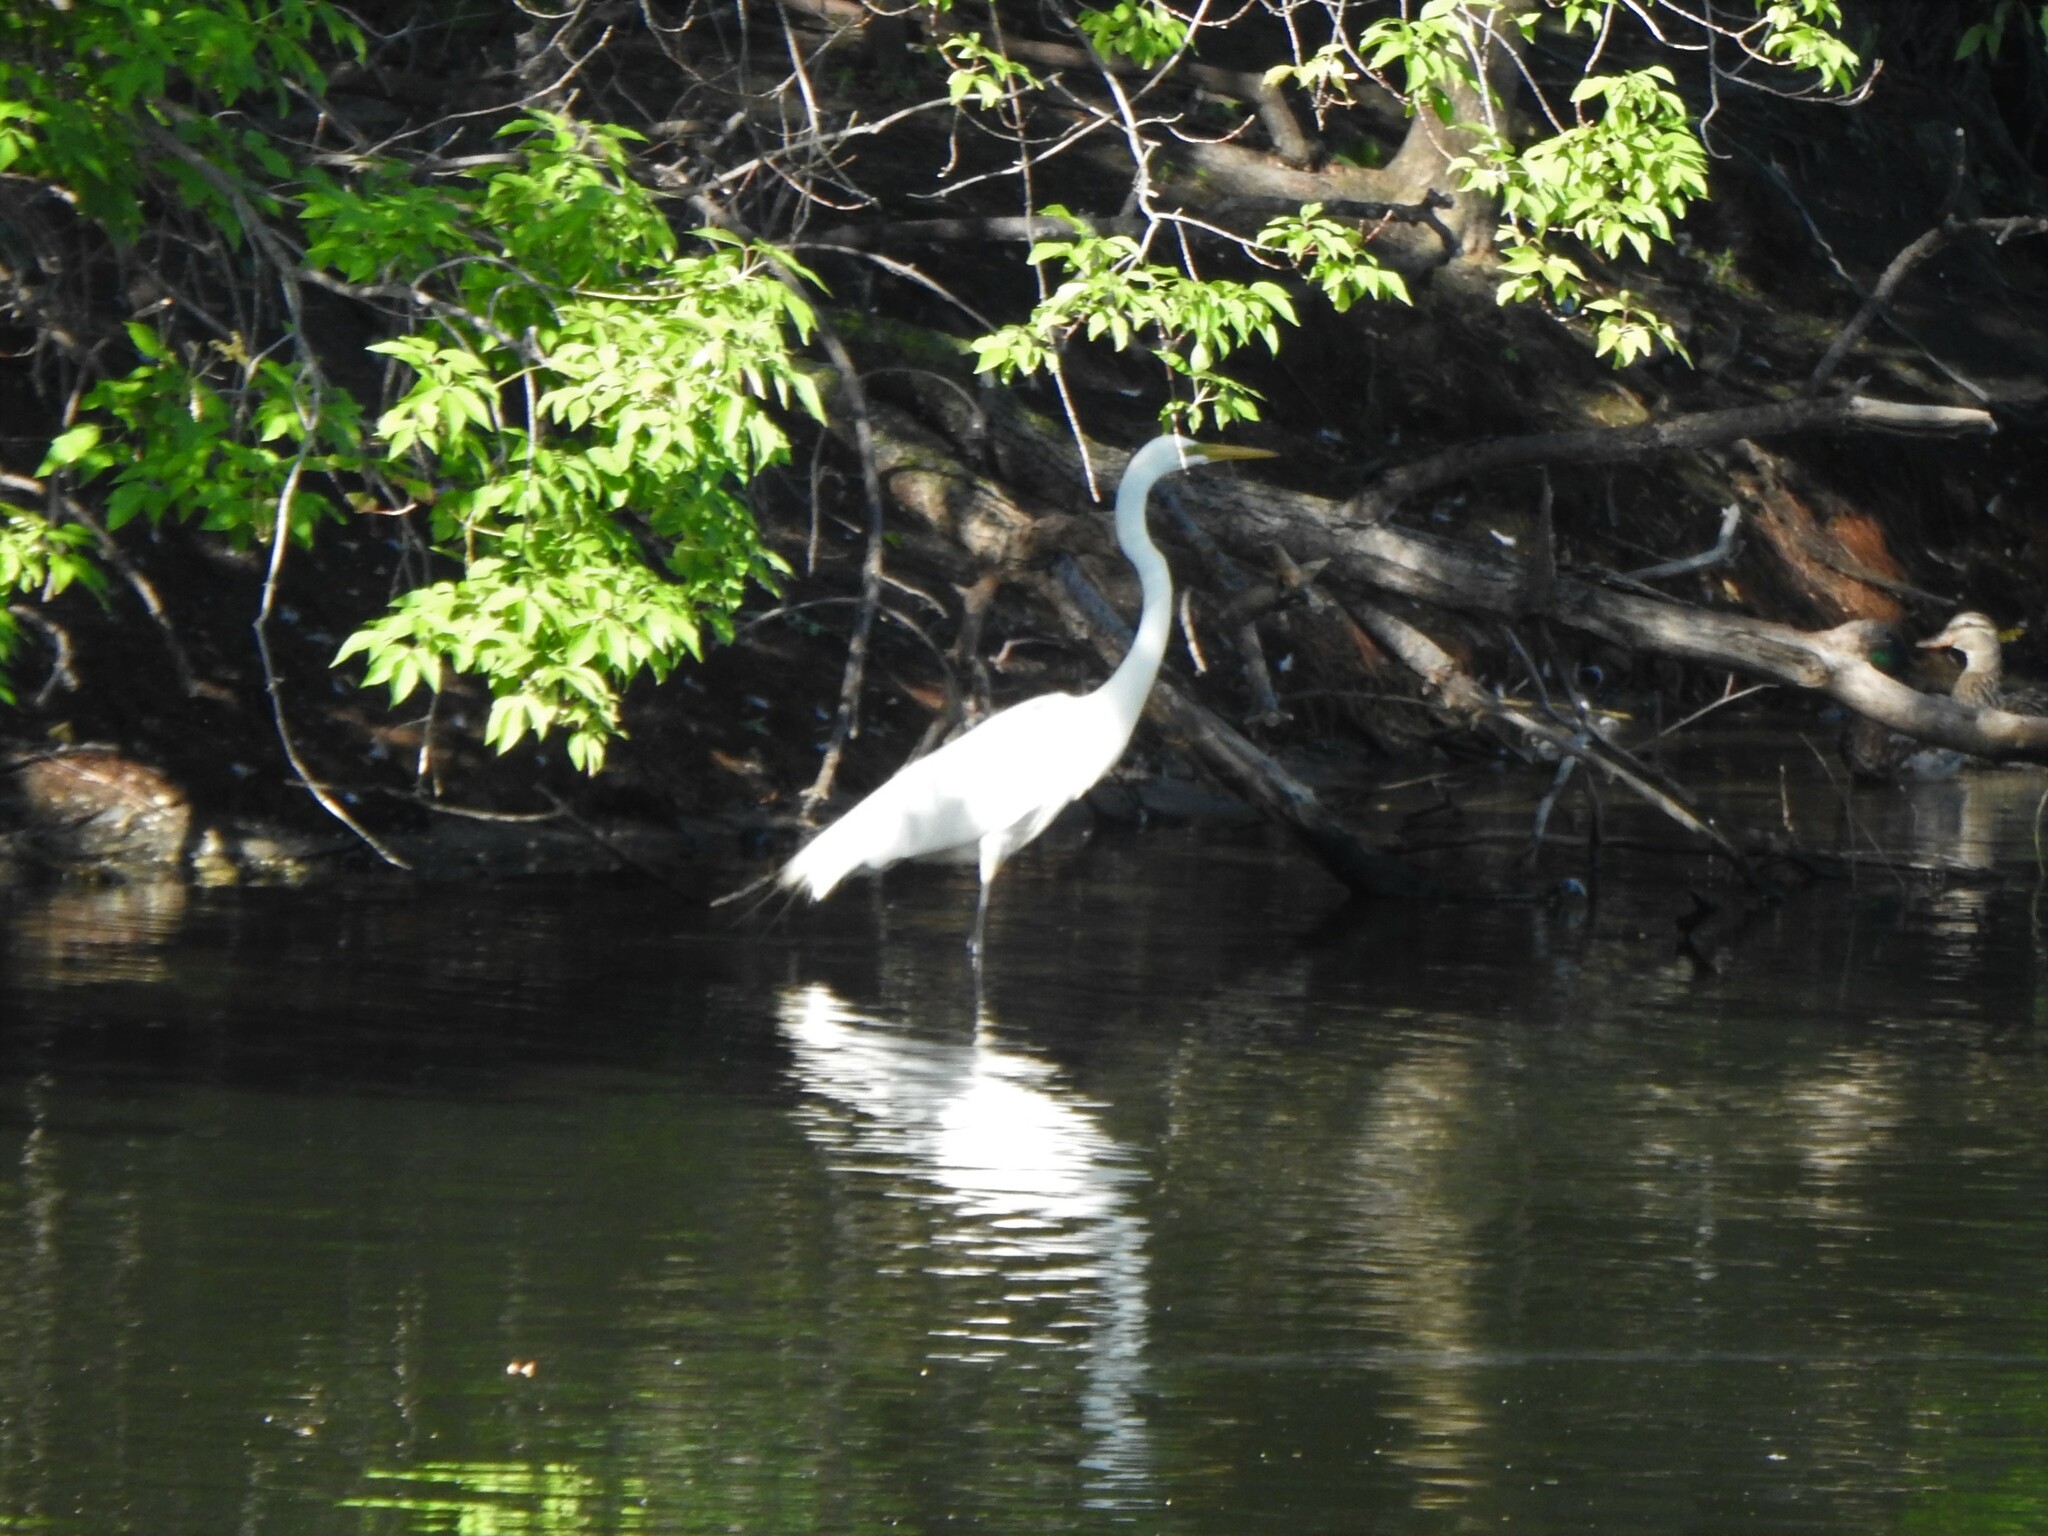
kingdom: Animalia
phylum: Chordata
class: Aves
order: Pelecaniformes
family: Ardeidae
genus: Ardea
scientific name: Ardea alba
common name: Great egret
